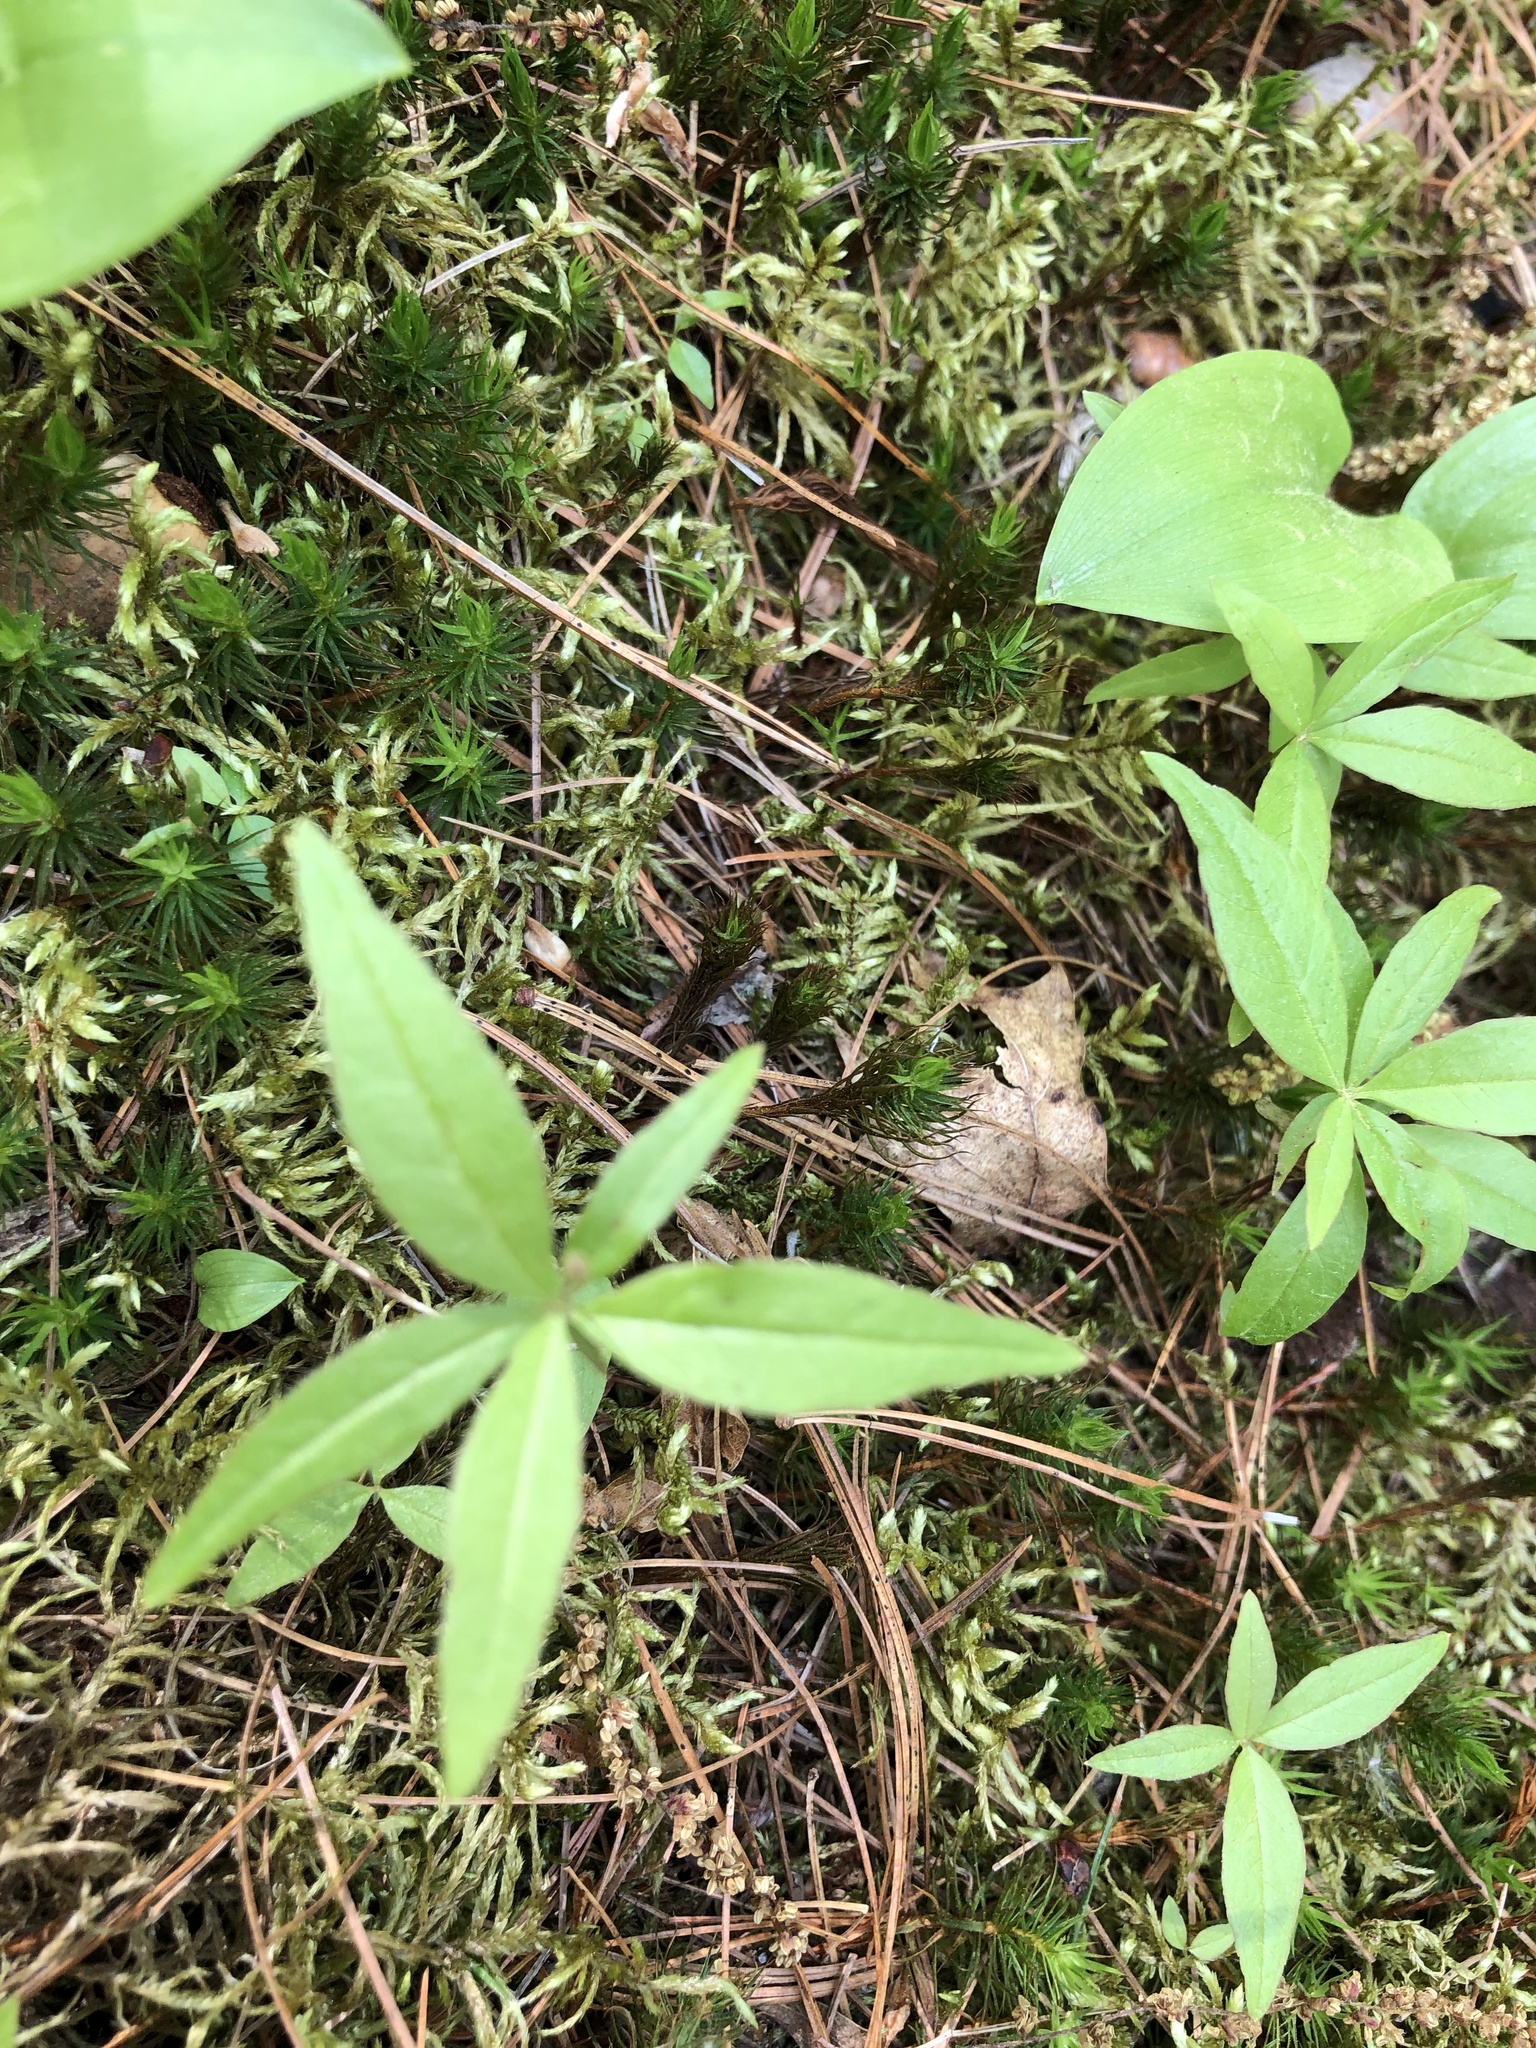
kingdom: Plantae
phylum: Tracheophyta
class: Magnoliopsida
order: Ericales
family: Primulaceae
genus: Lysimachia
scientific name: Lysimachia borealis
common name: American starflower
